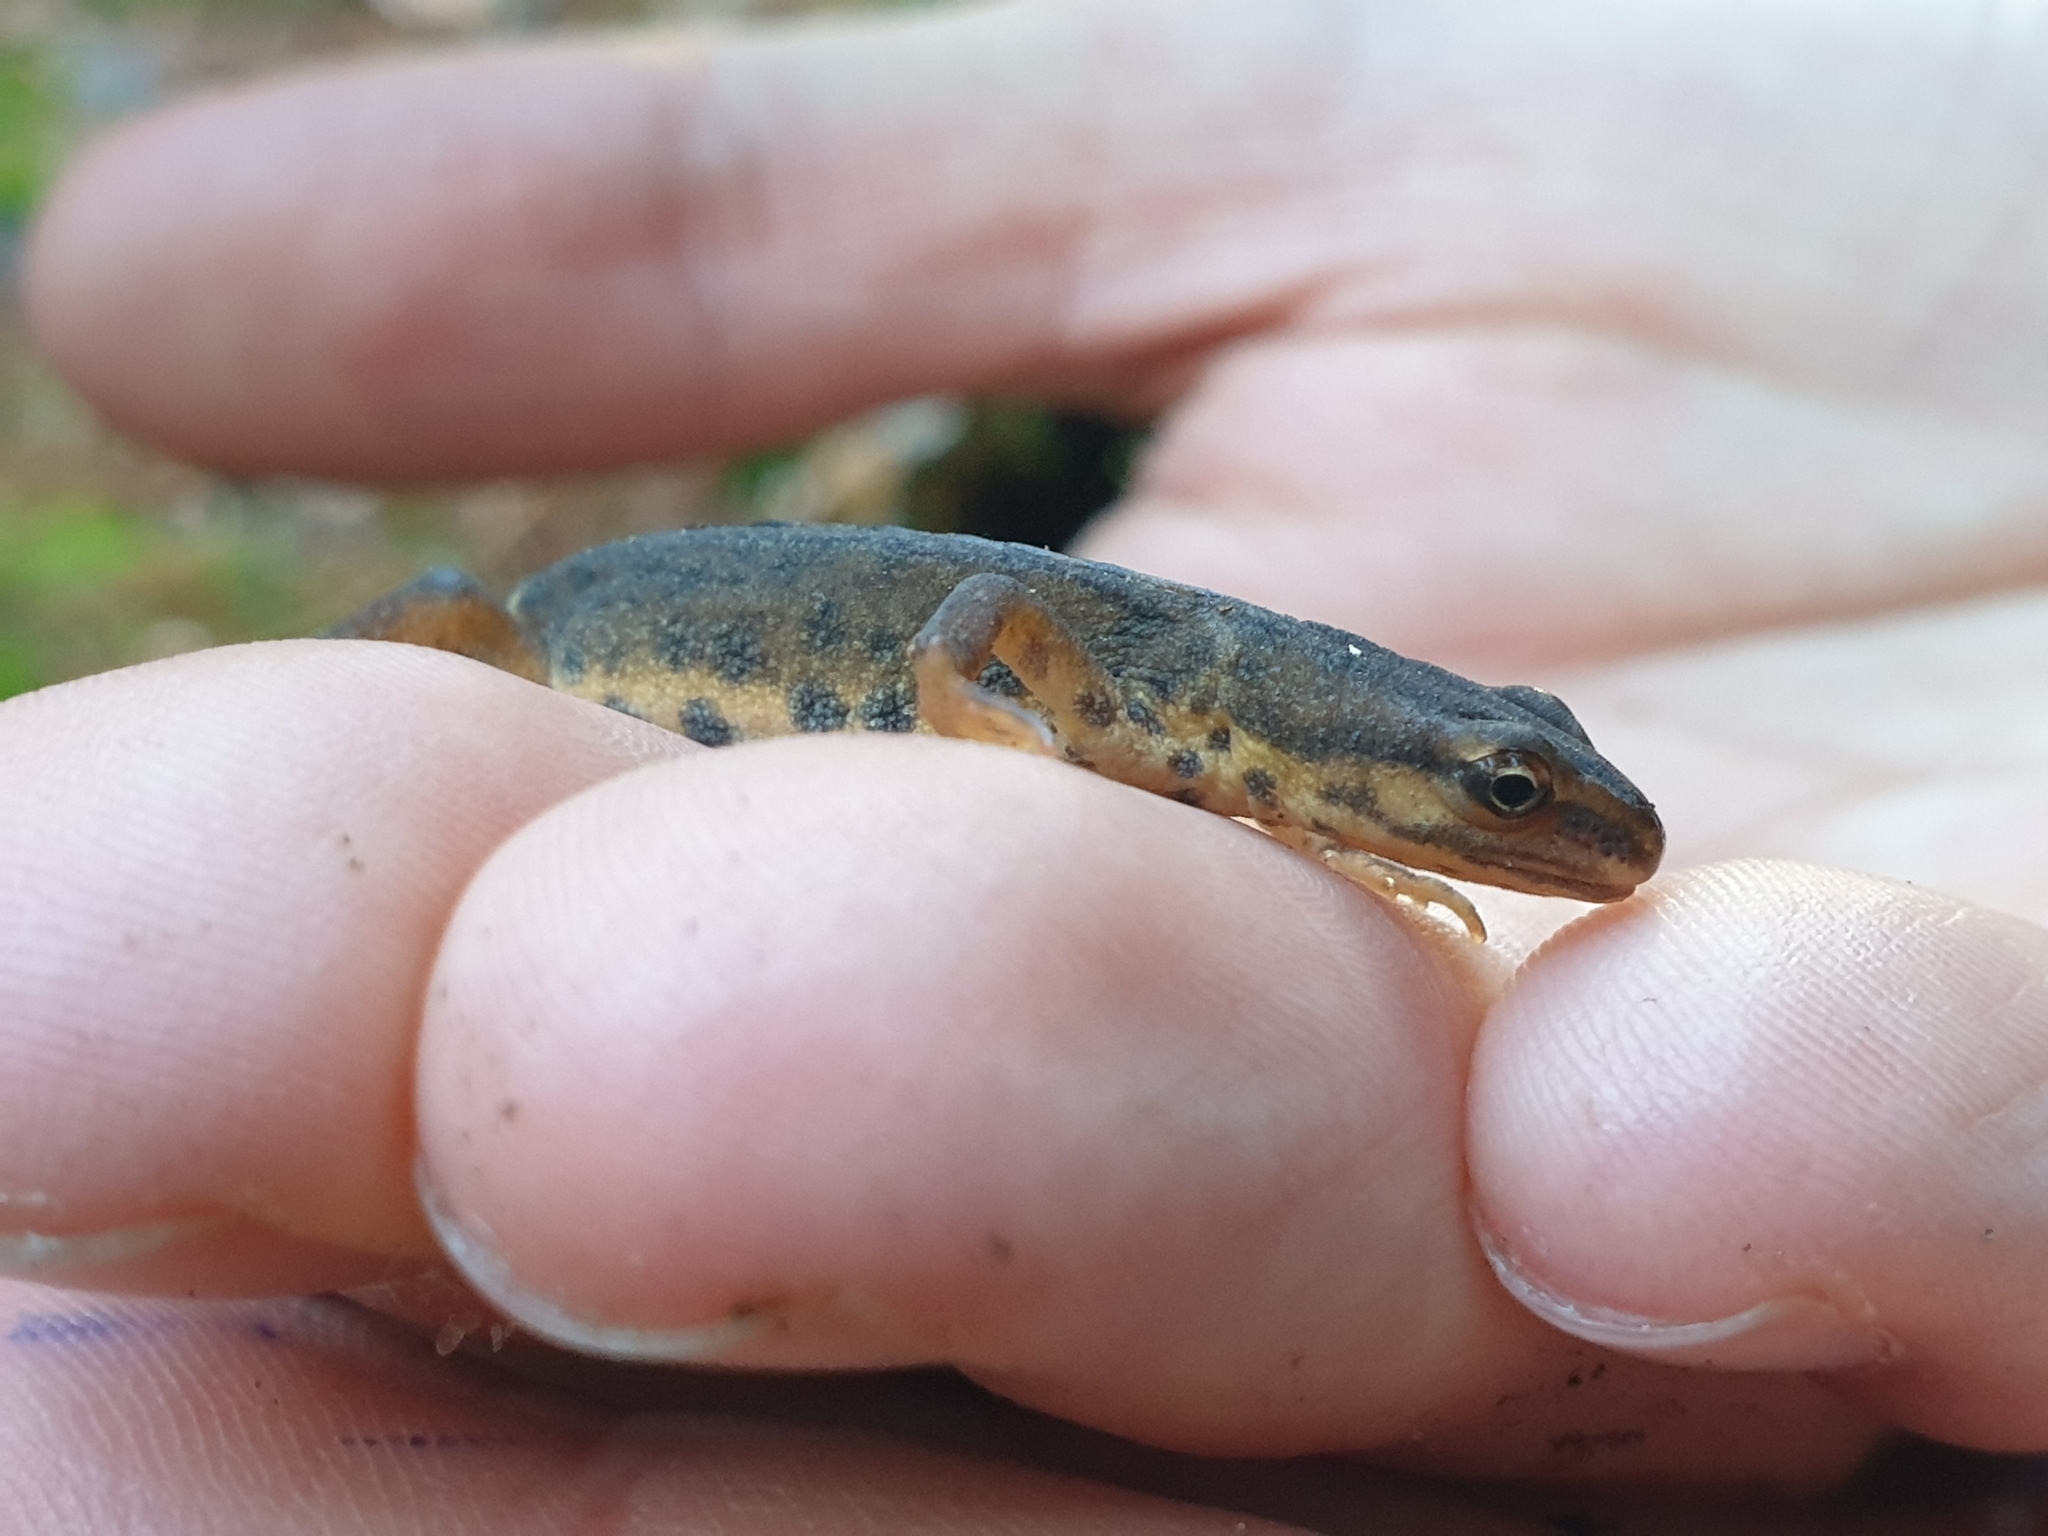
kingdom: Animalia
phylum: Chordata
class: Amphibia
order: Caudata
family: Salamandridae
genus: Lissotriton
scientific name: Lissotriton vulgaris
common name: Smooth newt
